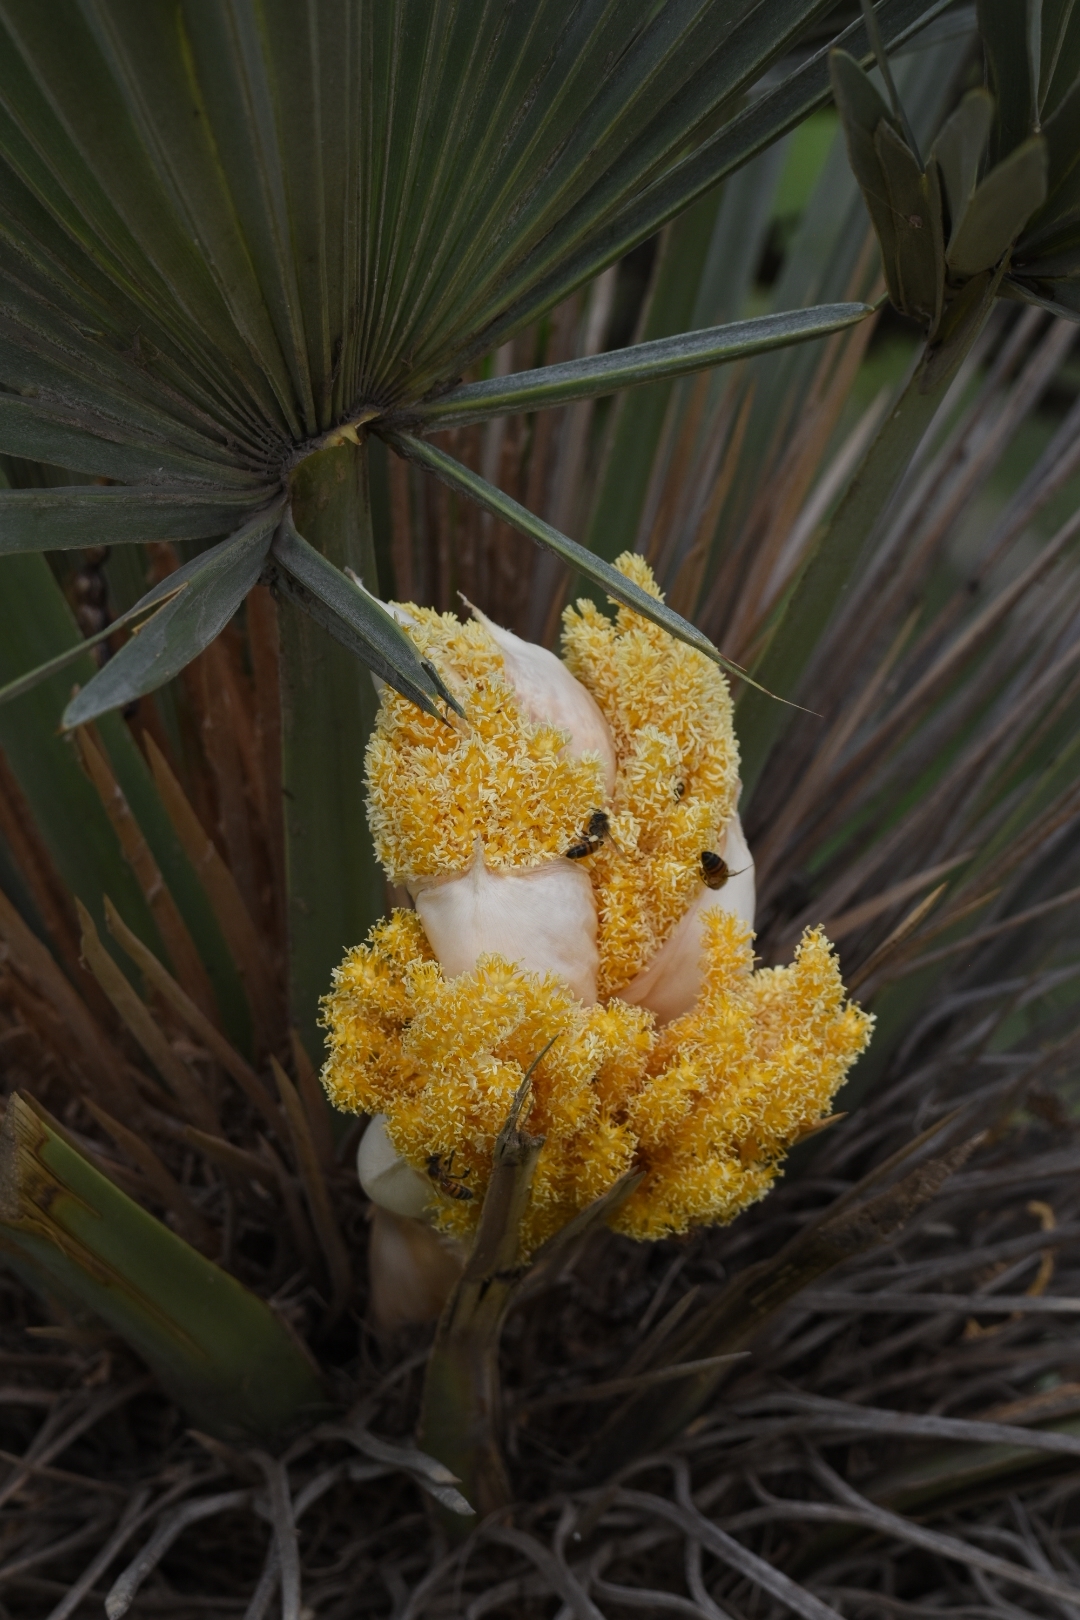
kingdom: Plantae
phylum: Tracheophyta
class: Liliopsida
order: Arecales
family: Arecaceae
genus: Trithrinax
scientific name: Trithrinax campestris
